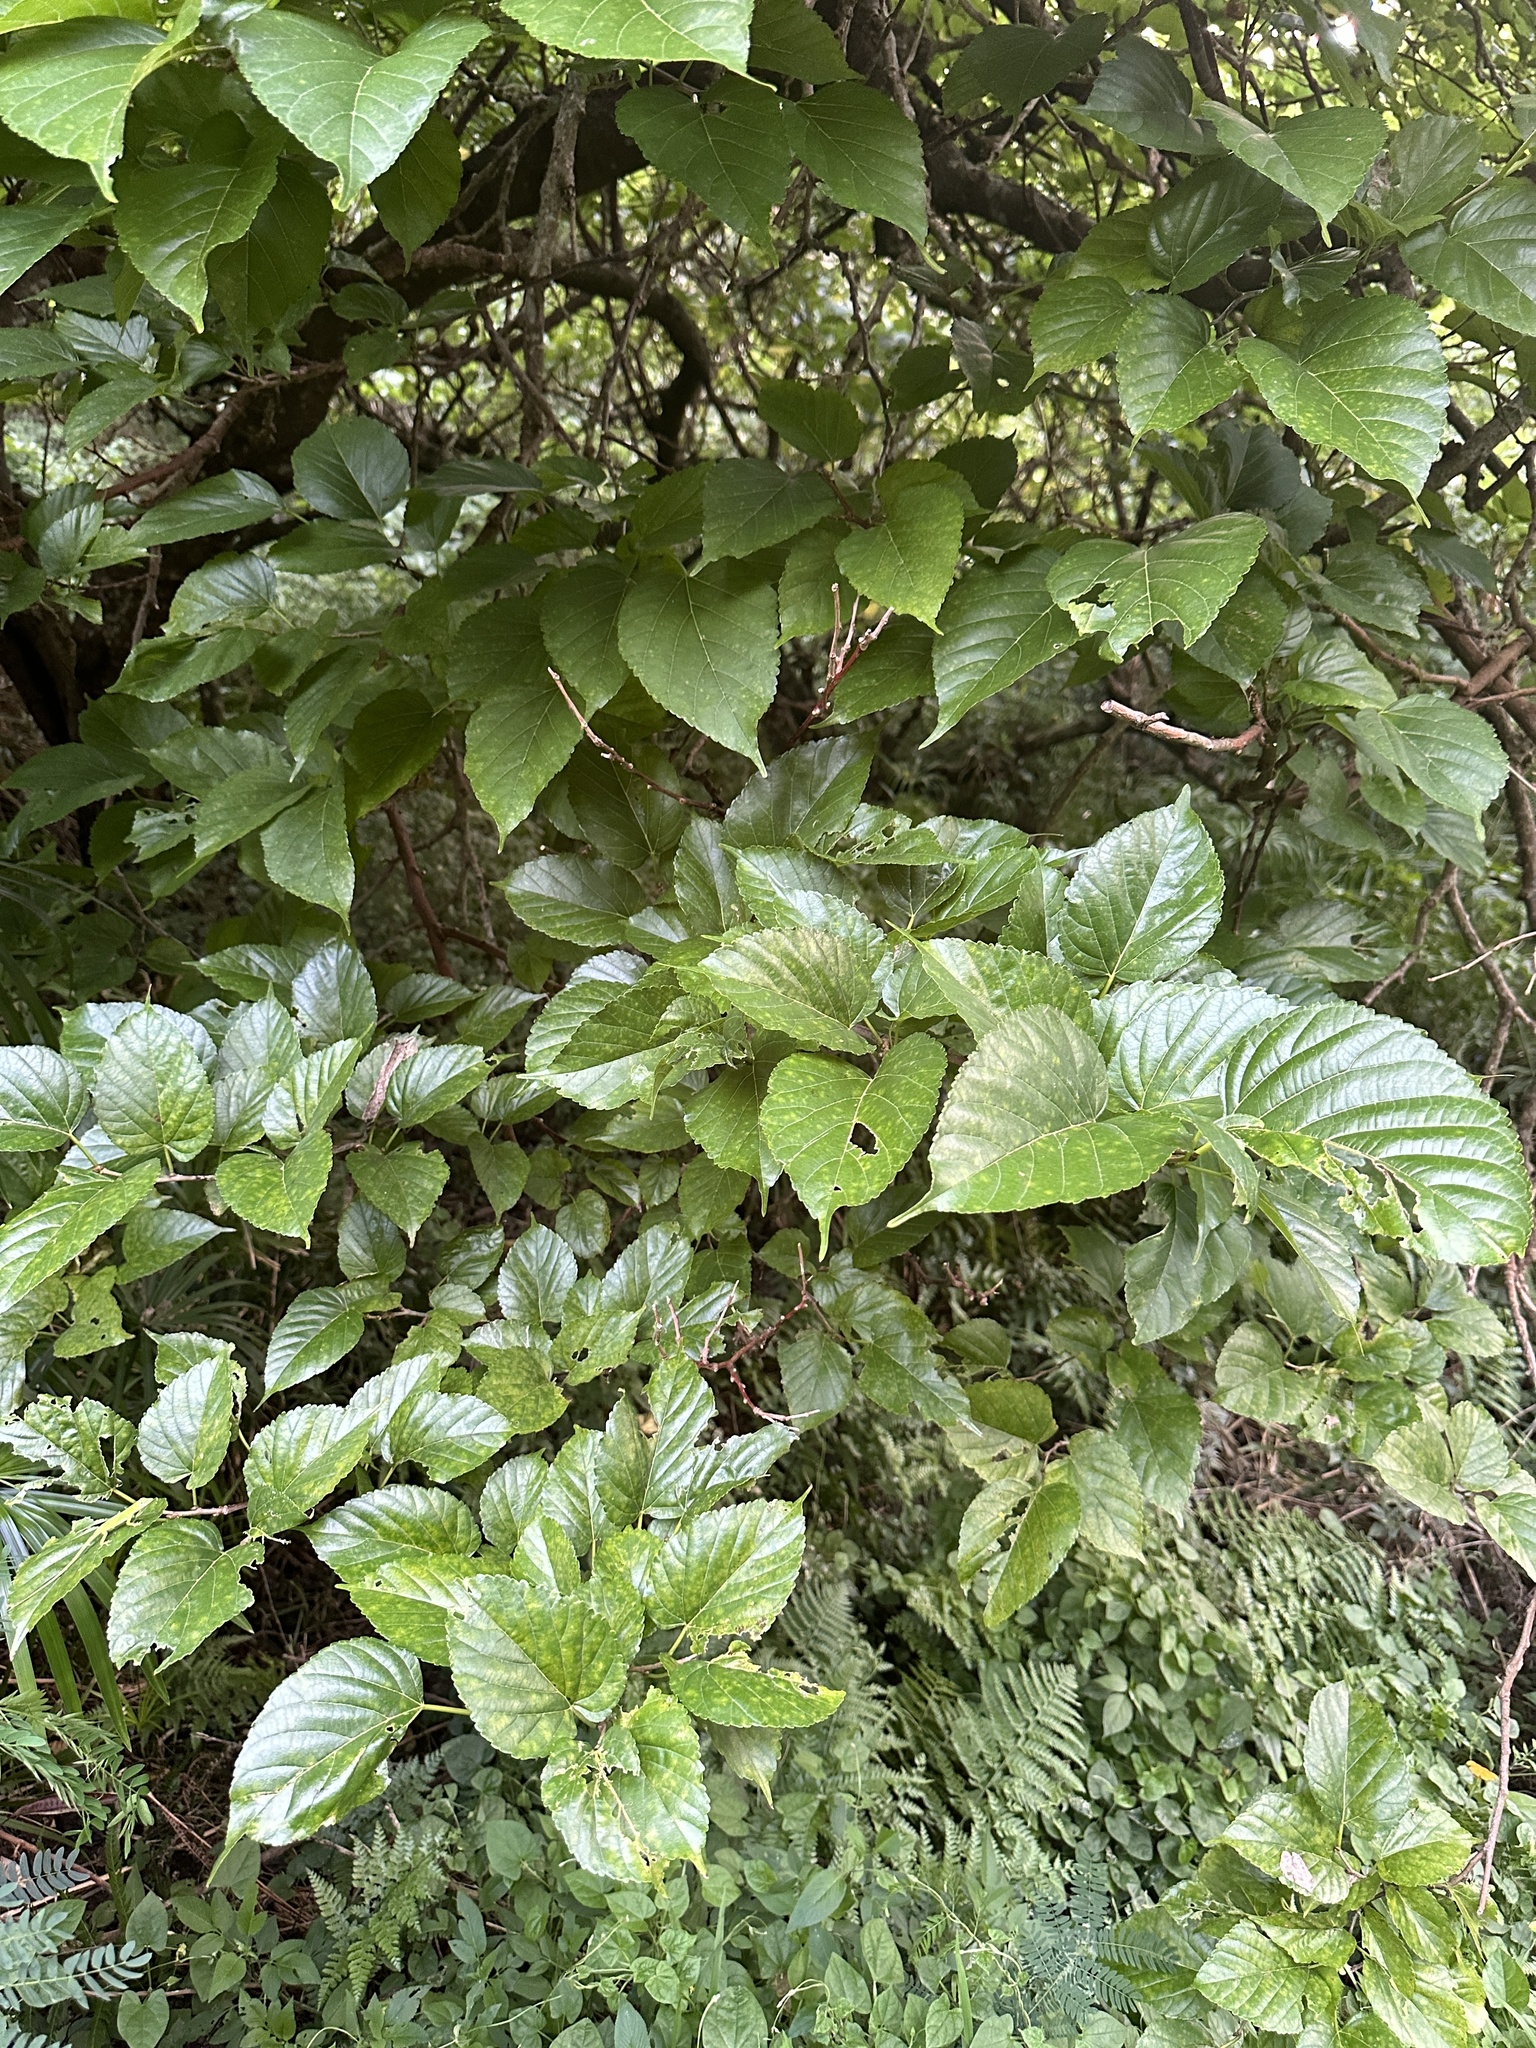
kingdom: Plantae
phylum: Tracheophyta
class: Magnoliopsida
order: Rosales
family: Moraceae
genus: Morus
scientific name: Morus indica
